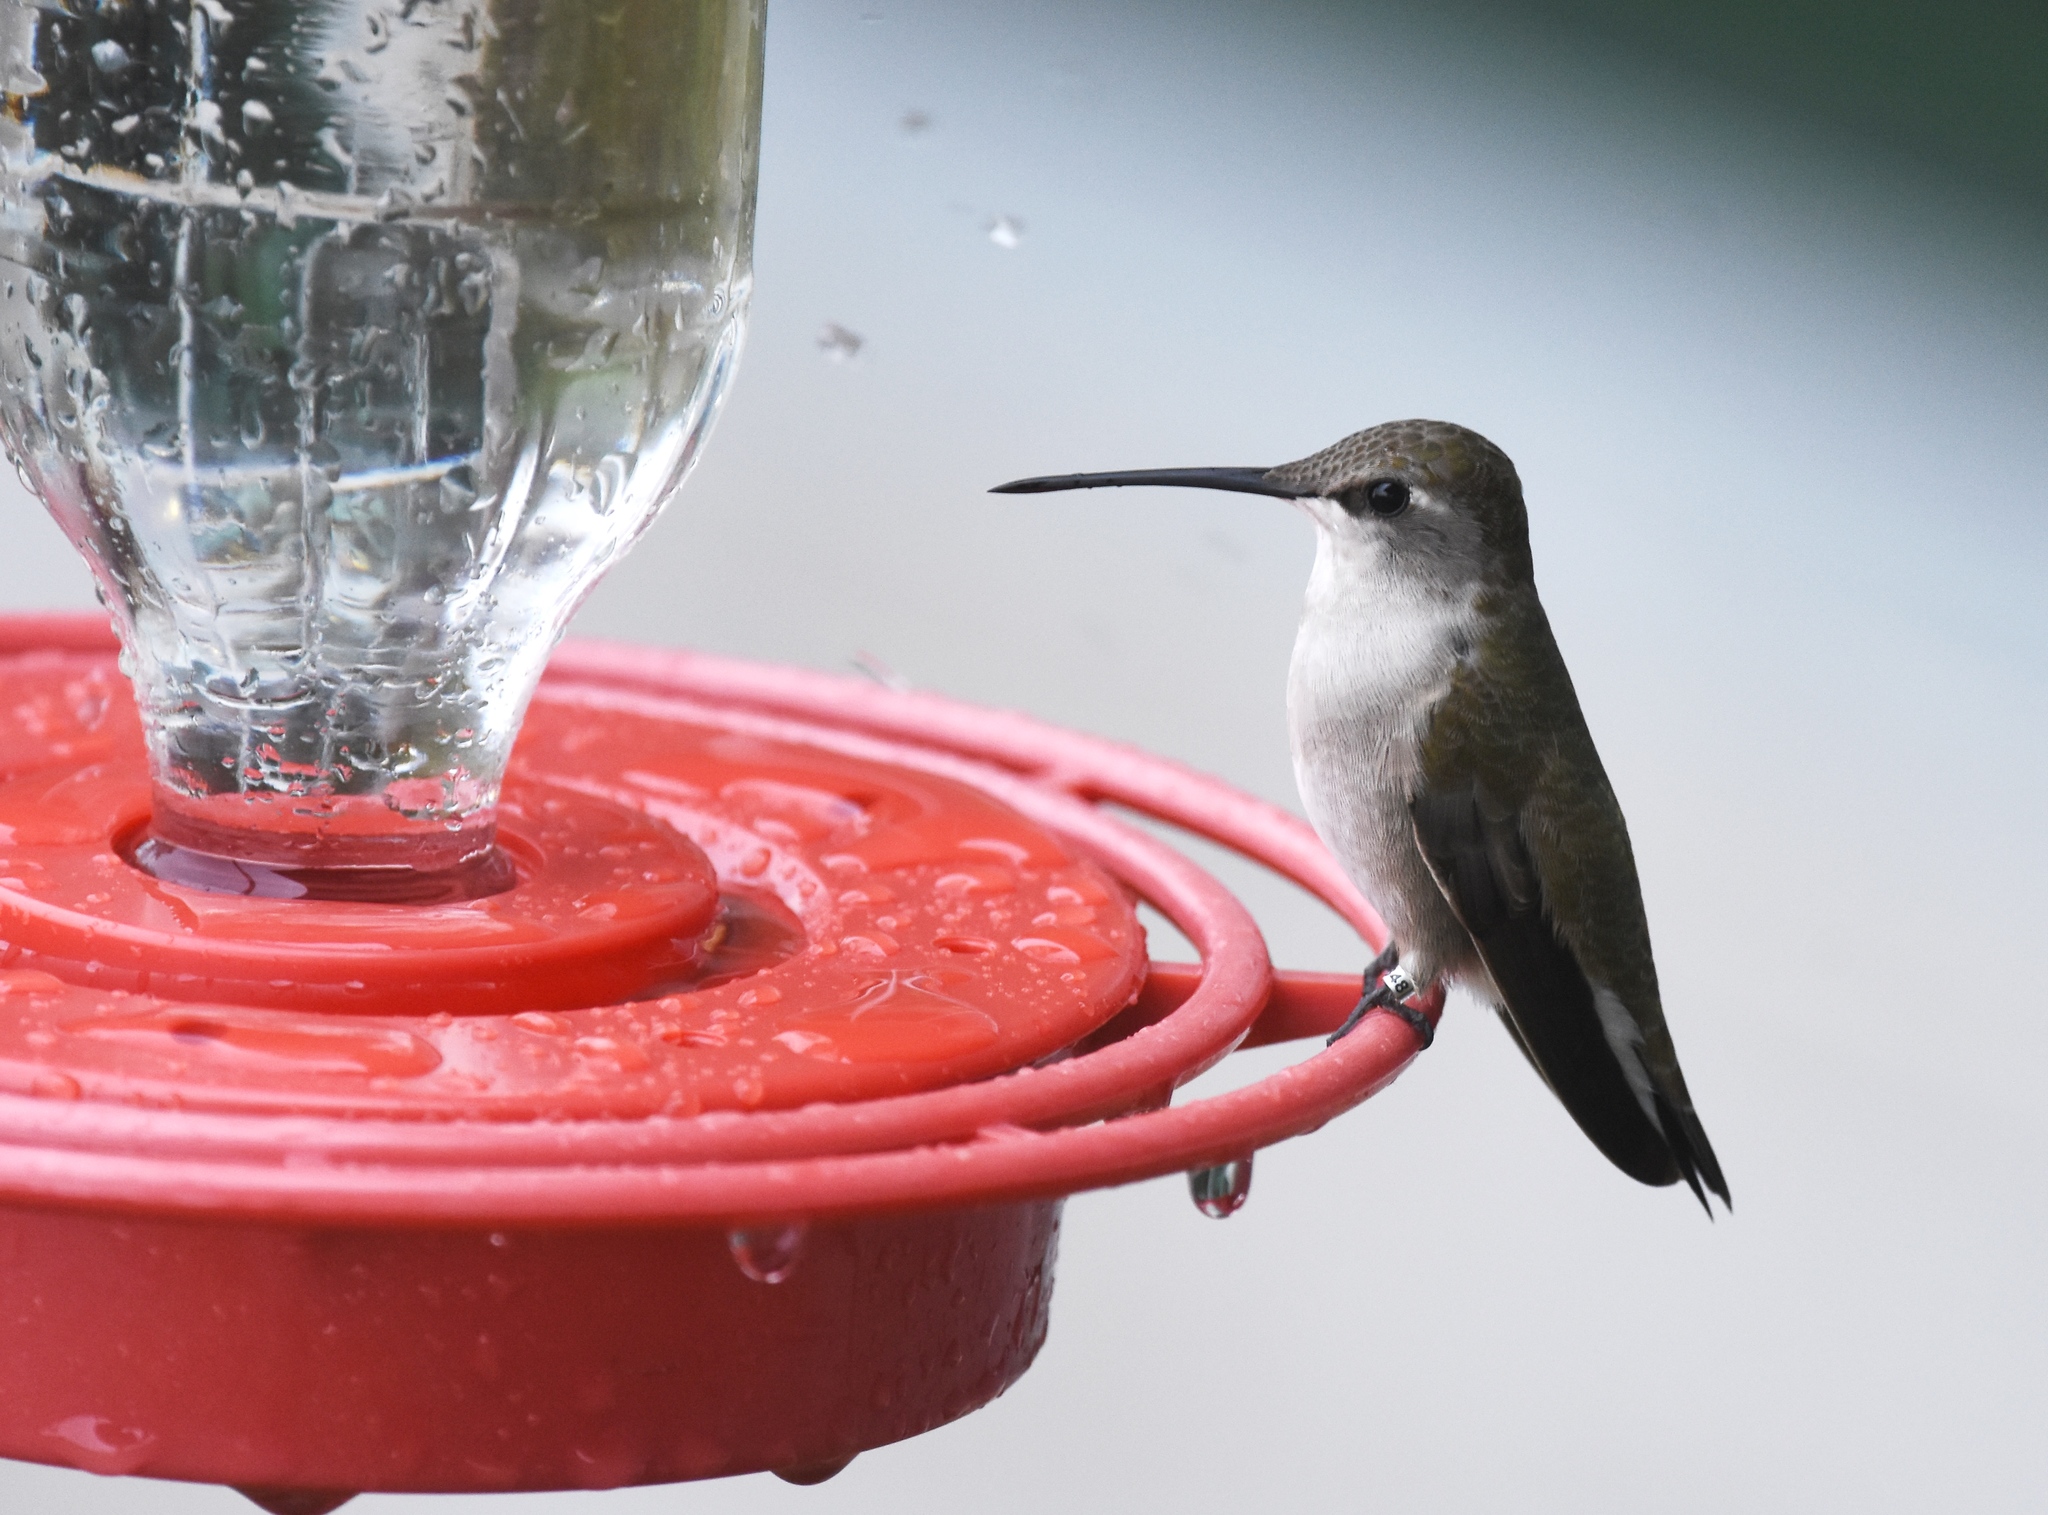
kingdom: Animalia
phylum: Chordata
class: Aves
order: Apodiformes
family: Trochilidae
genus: Archilochus
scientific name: Archilochus alexandri
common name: Black-chinned hummingbird
